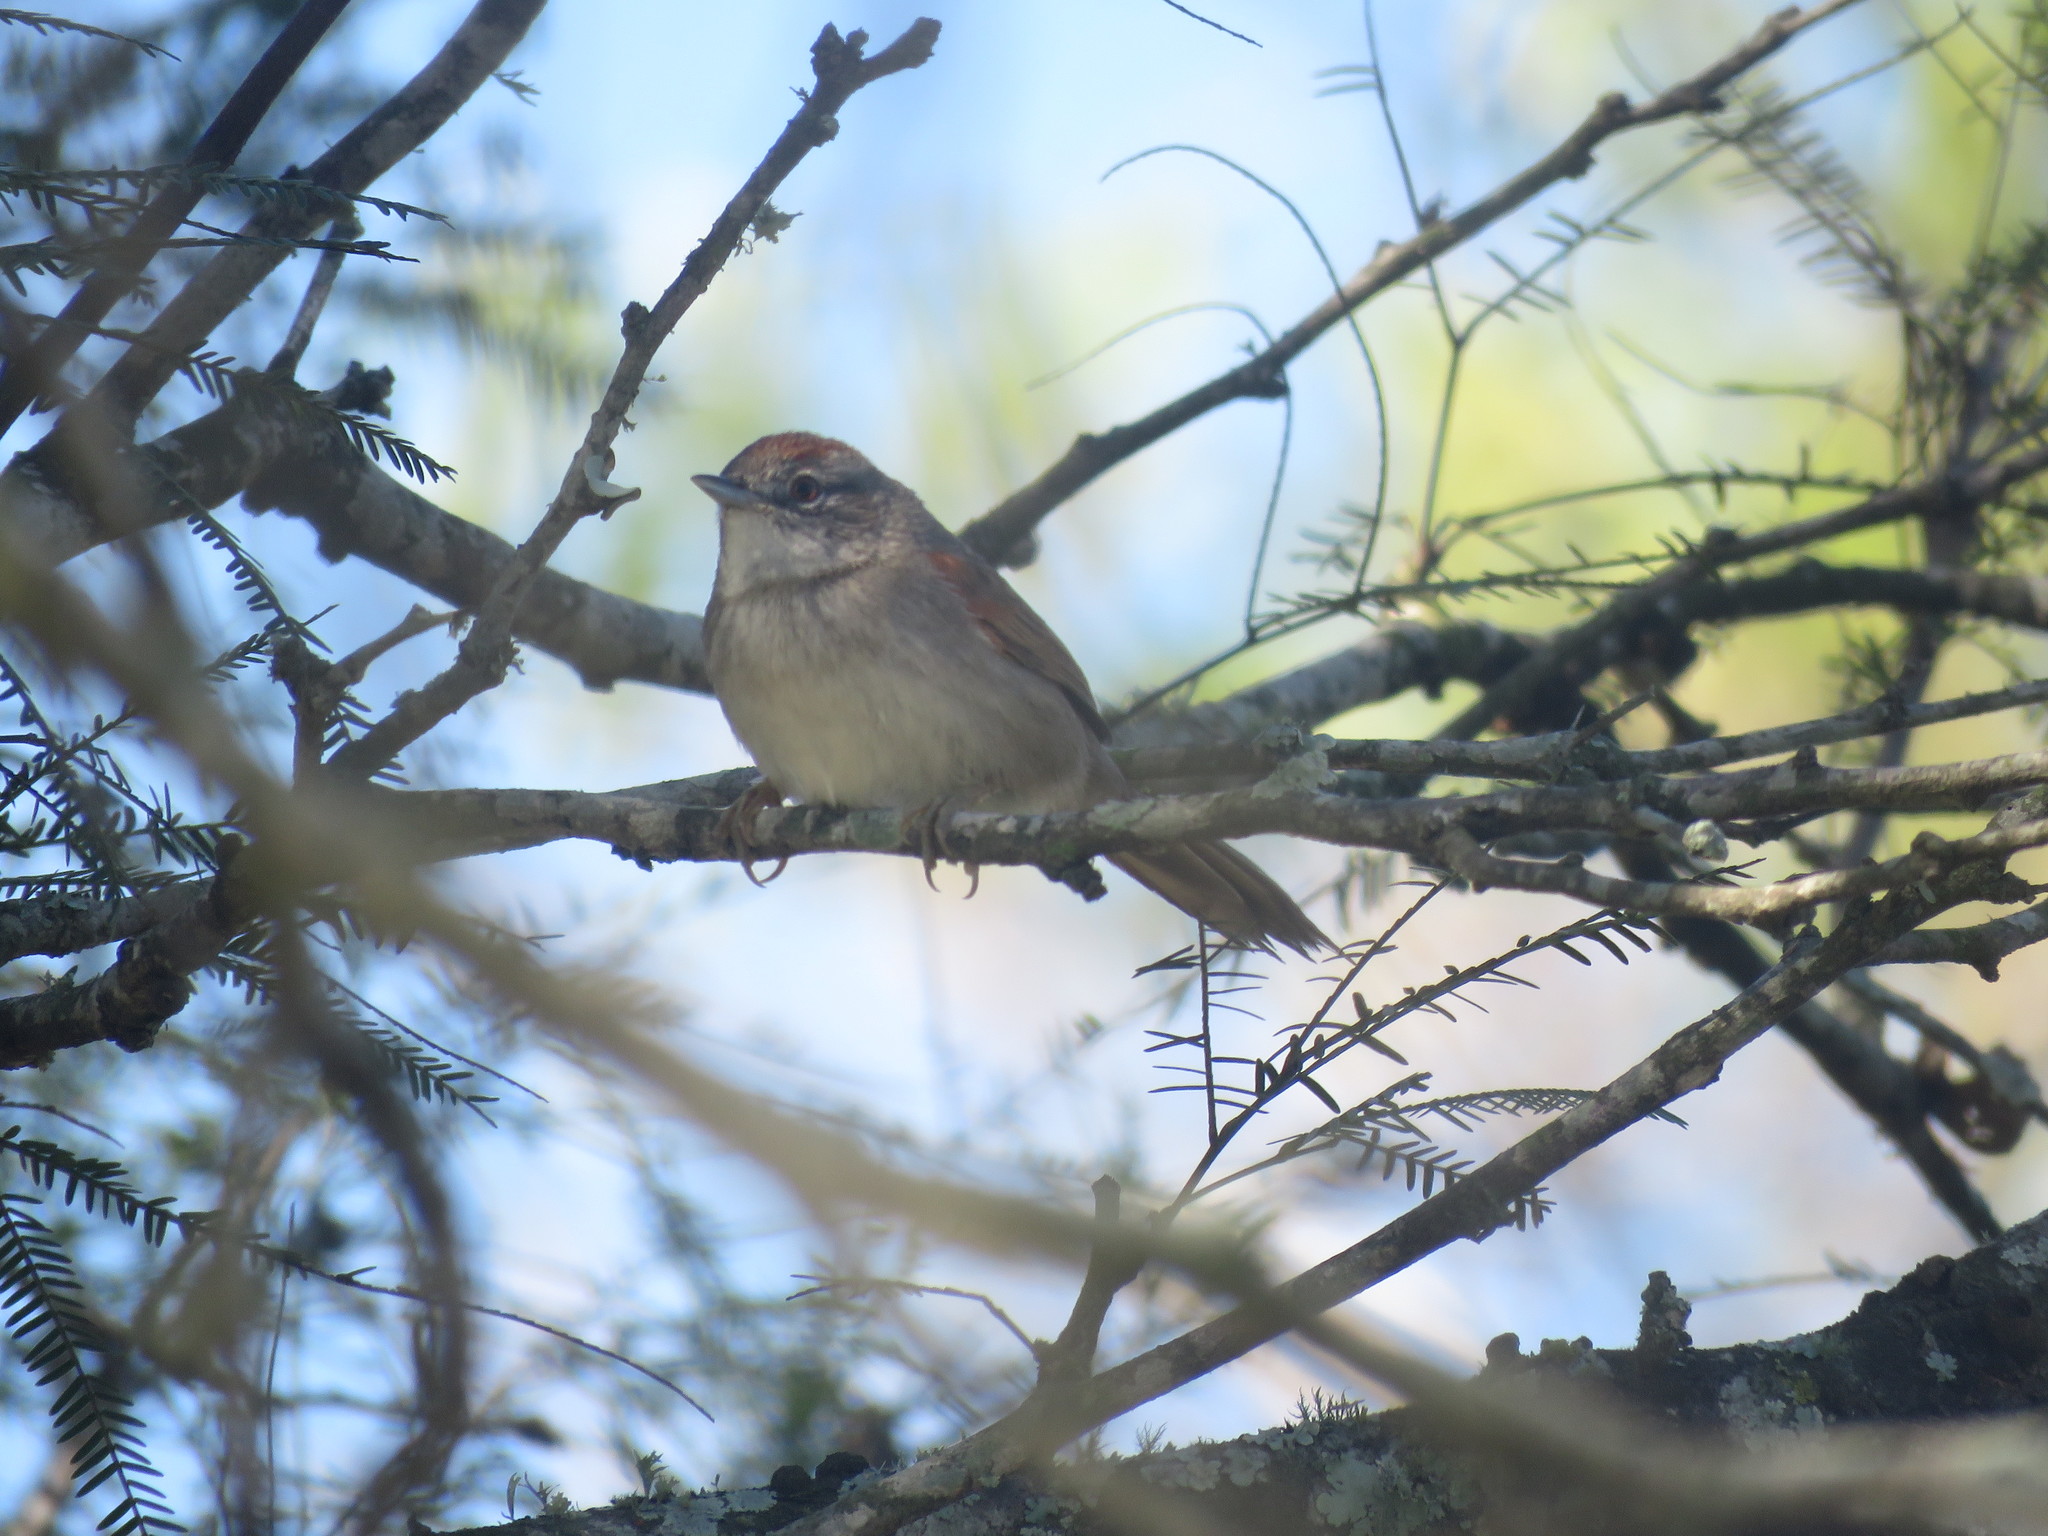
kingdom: Animalia
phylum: Chordata
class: Aves
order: Passeriformes
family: Furnariidae
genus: Synallaxis
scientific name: Synallaxis albescens
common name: Pale-breasted spinetail
